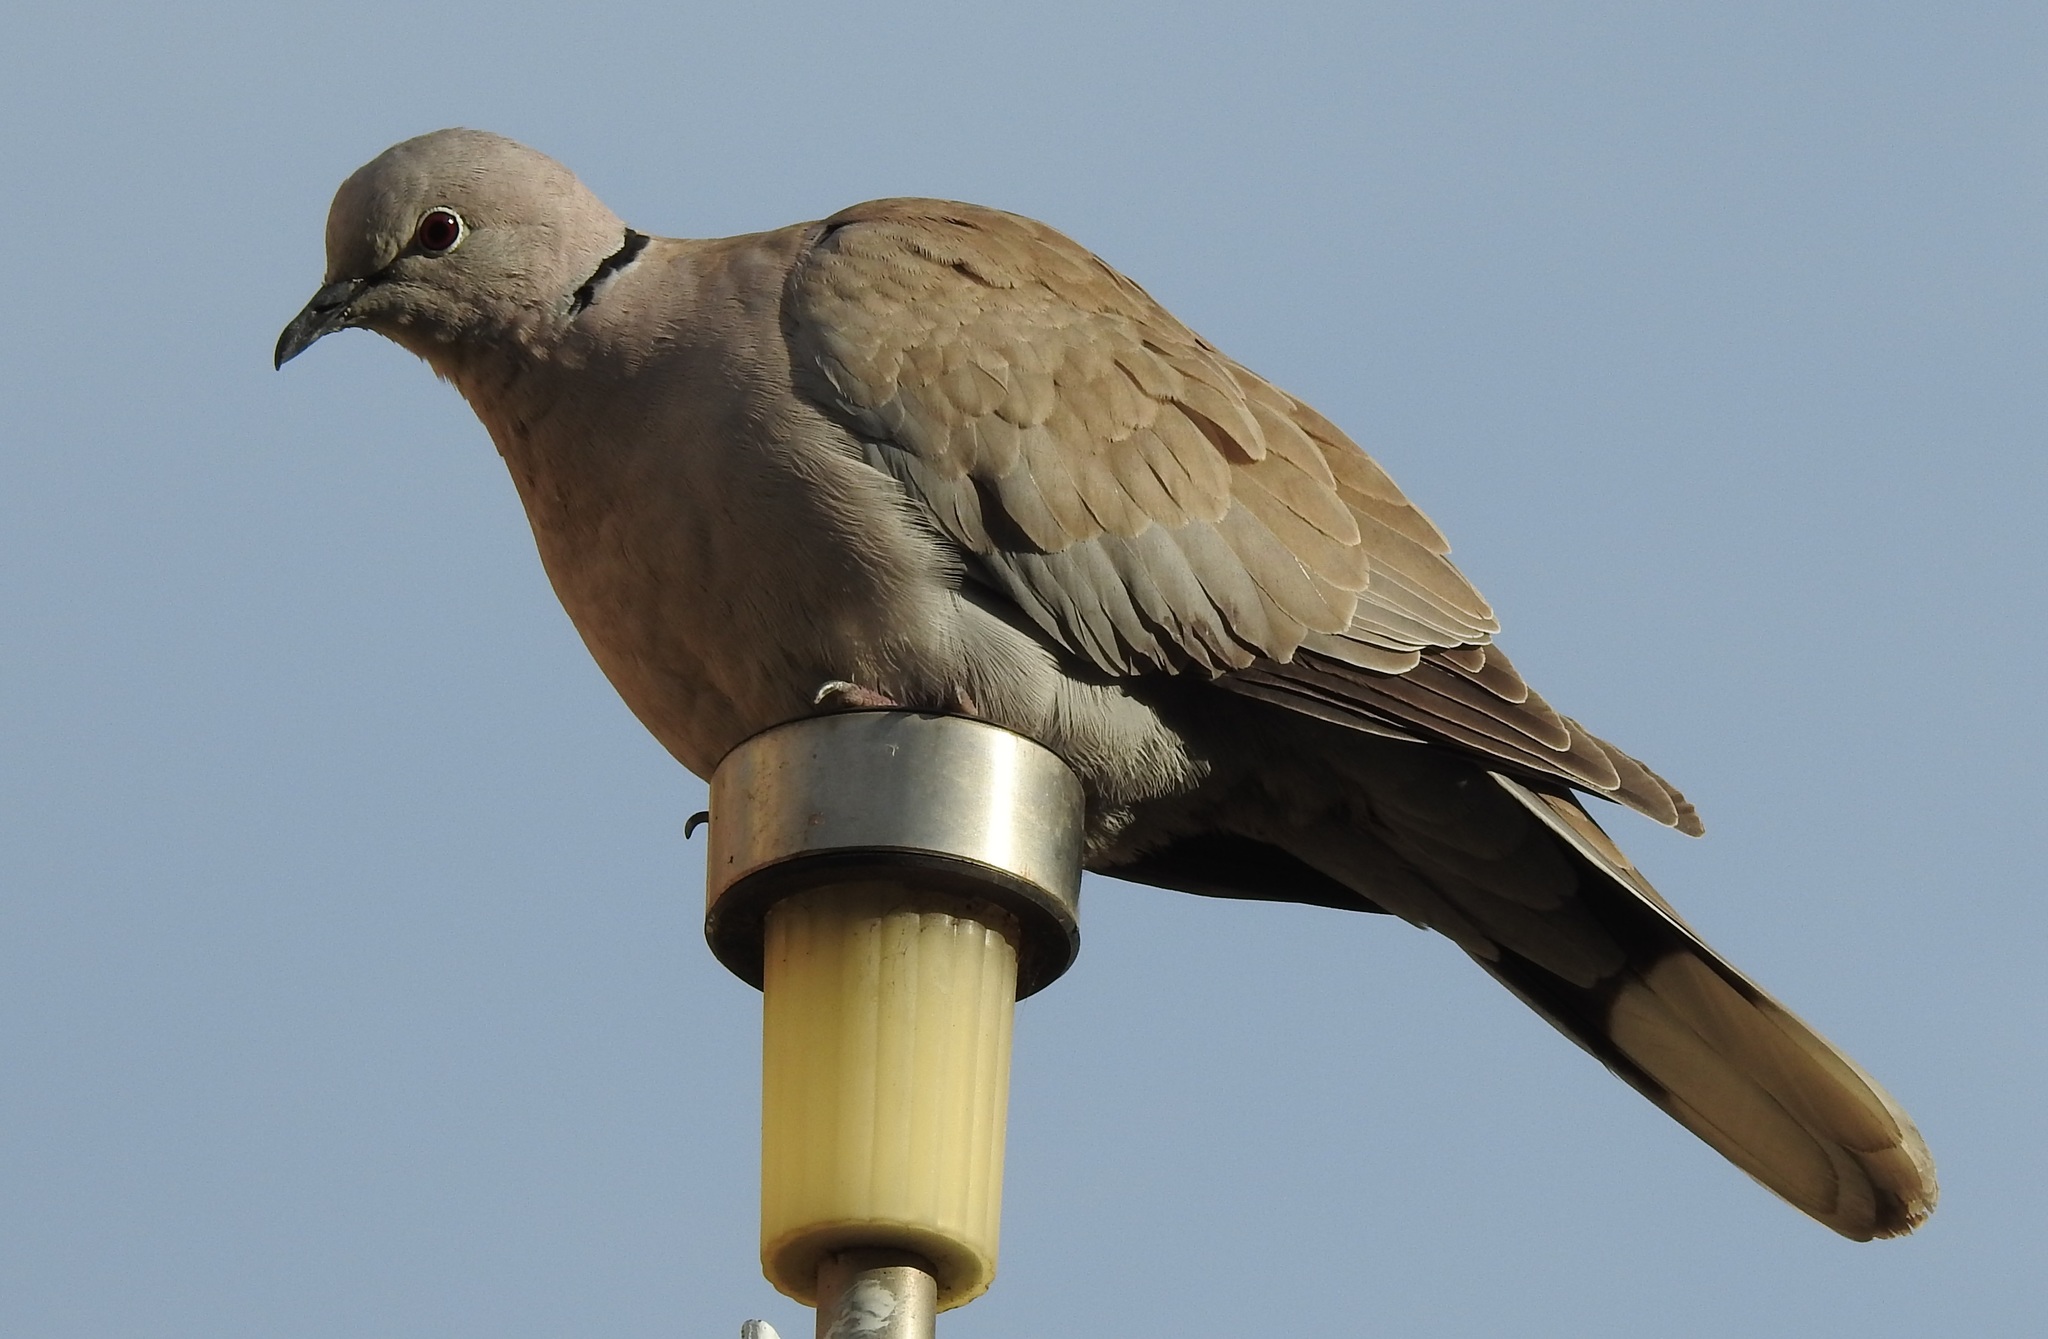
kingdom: Animalia
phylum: Chordata
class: Aves
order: Columbiformes
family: Columbidae
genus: Streptopelia
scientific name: Streptopelia decaocto
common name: Eurasian collared dove
